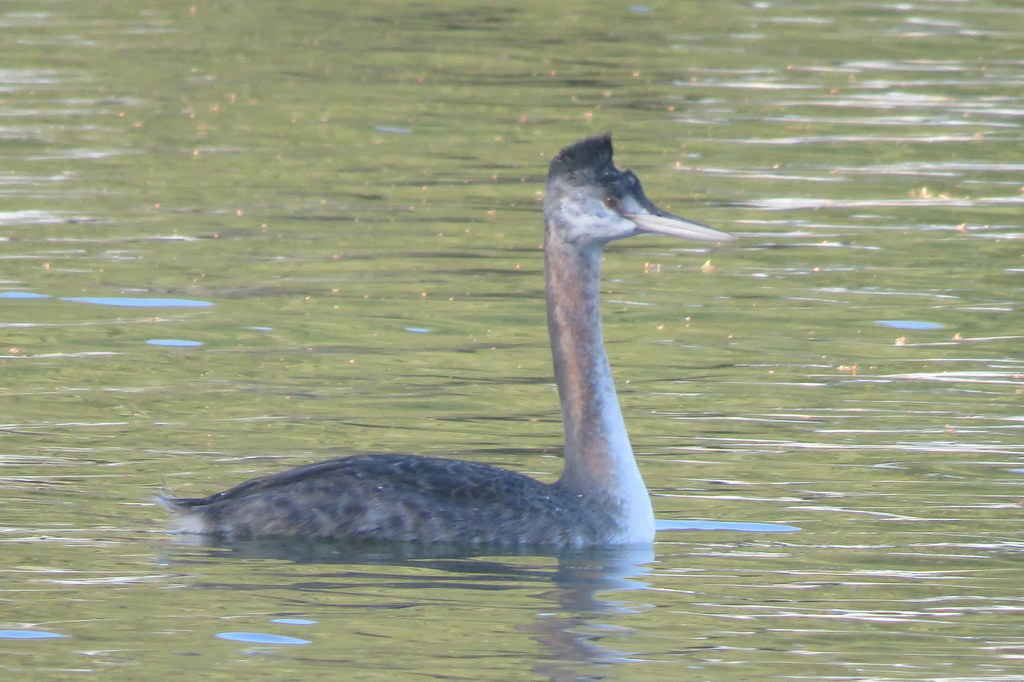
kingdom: Animalia
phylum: Chordata
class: Aves
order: Podicipediformes
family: Podicipedidae
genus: Podiceps
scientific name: Podiceps major
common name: Great grebe
